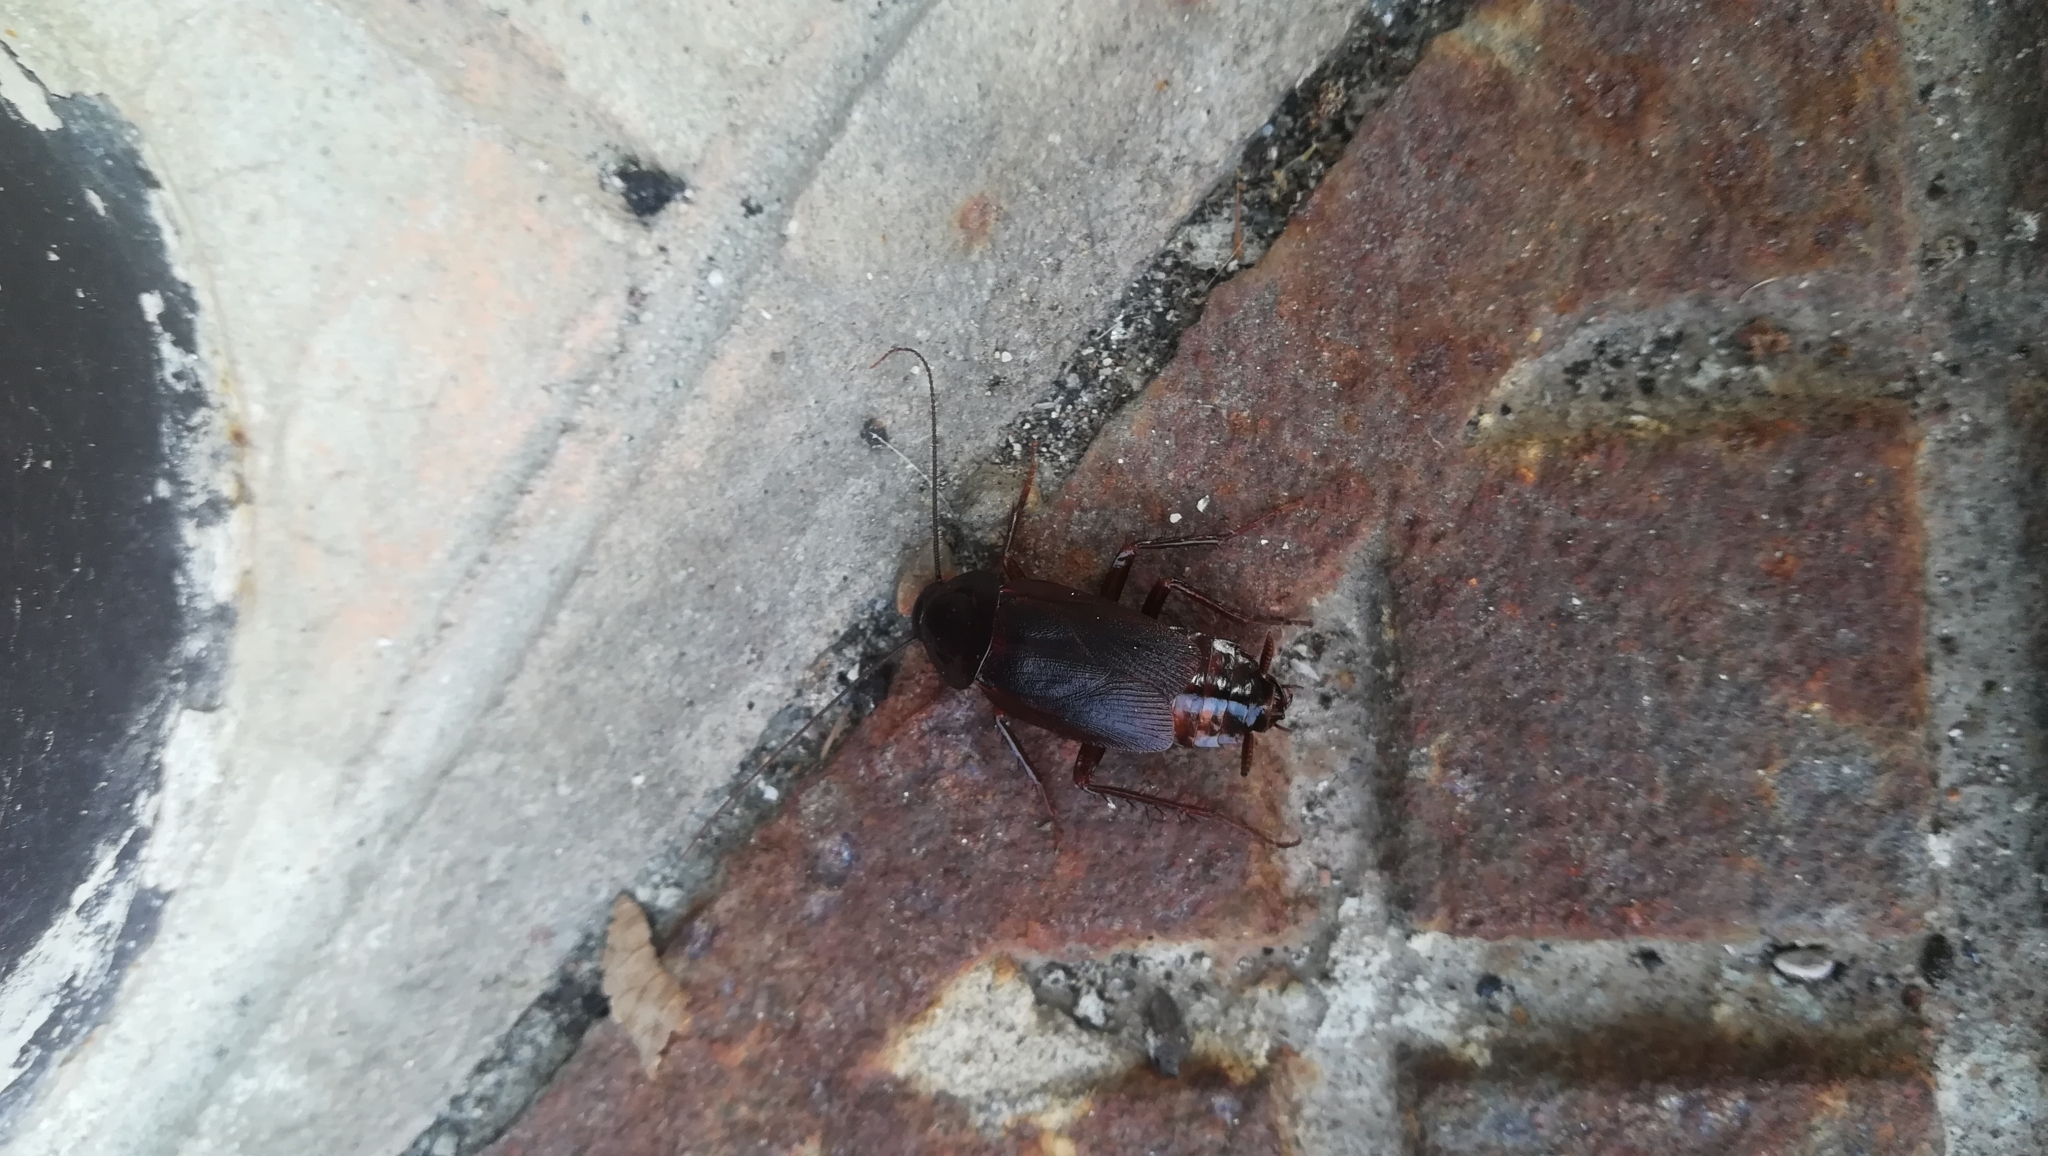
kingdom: Animalia
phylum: Arthropoda
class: Insecta
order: Blattodea
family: Blattidae
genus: Blatta
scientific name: Blatta orientalis
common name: Oriental cockroach
